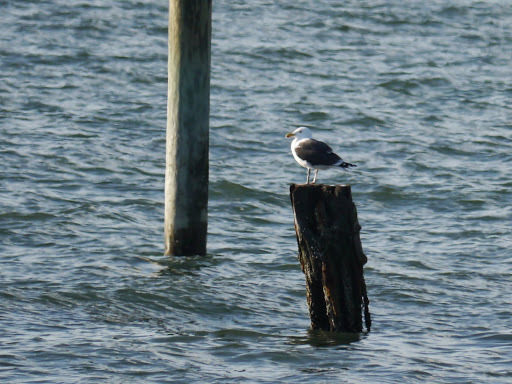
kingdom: Animalia
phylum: Chordata
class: Aves
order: Charadriiformes
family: Laridae
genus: Larus
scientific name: Larus marinus
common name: Great black-backed gull
